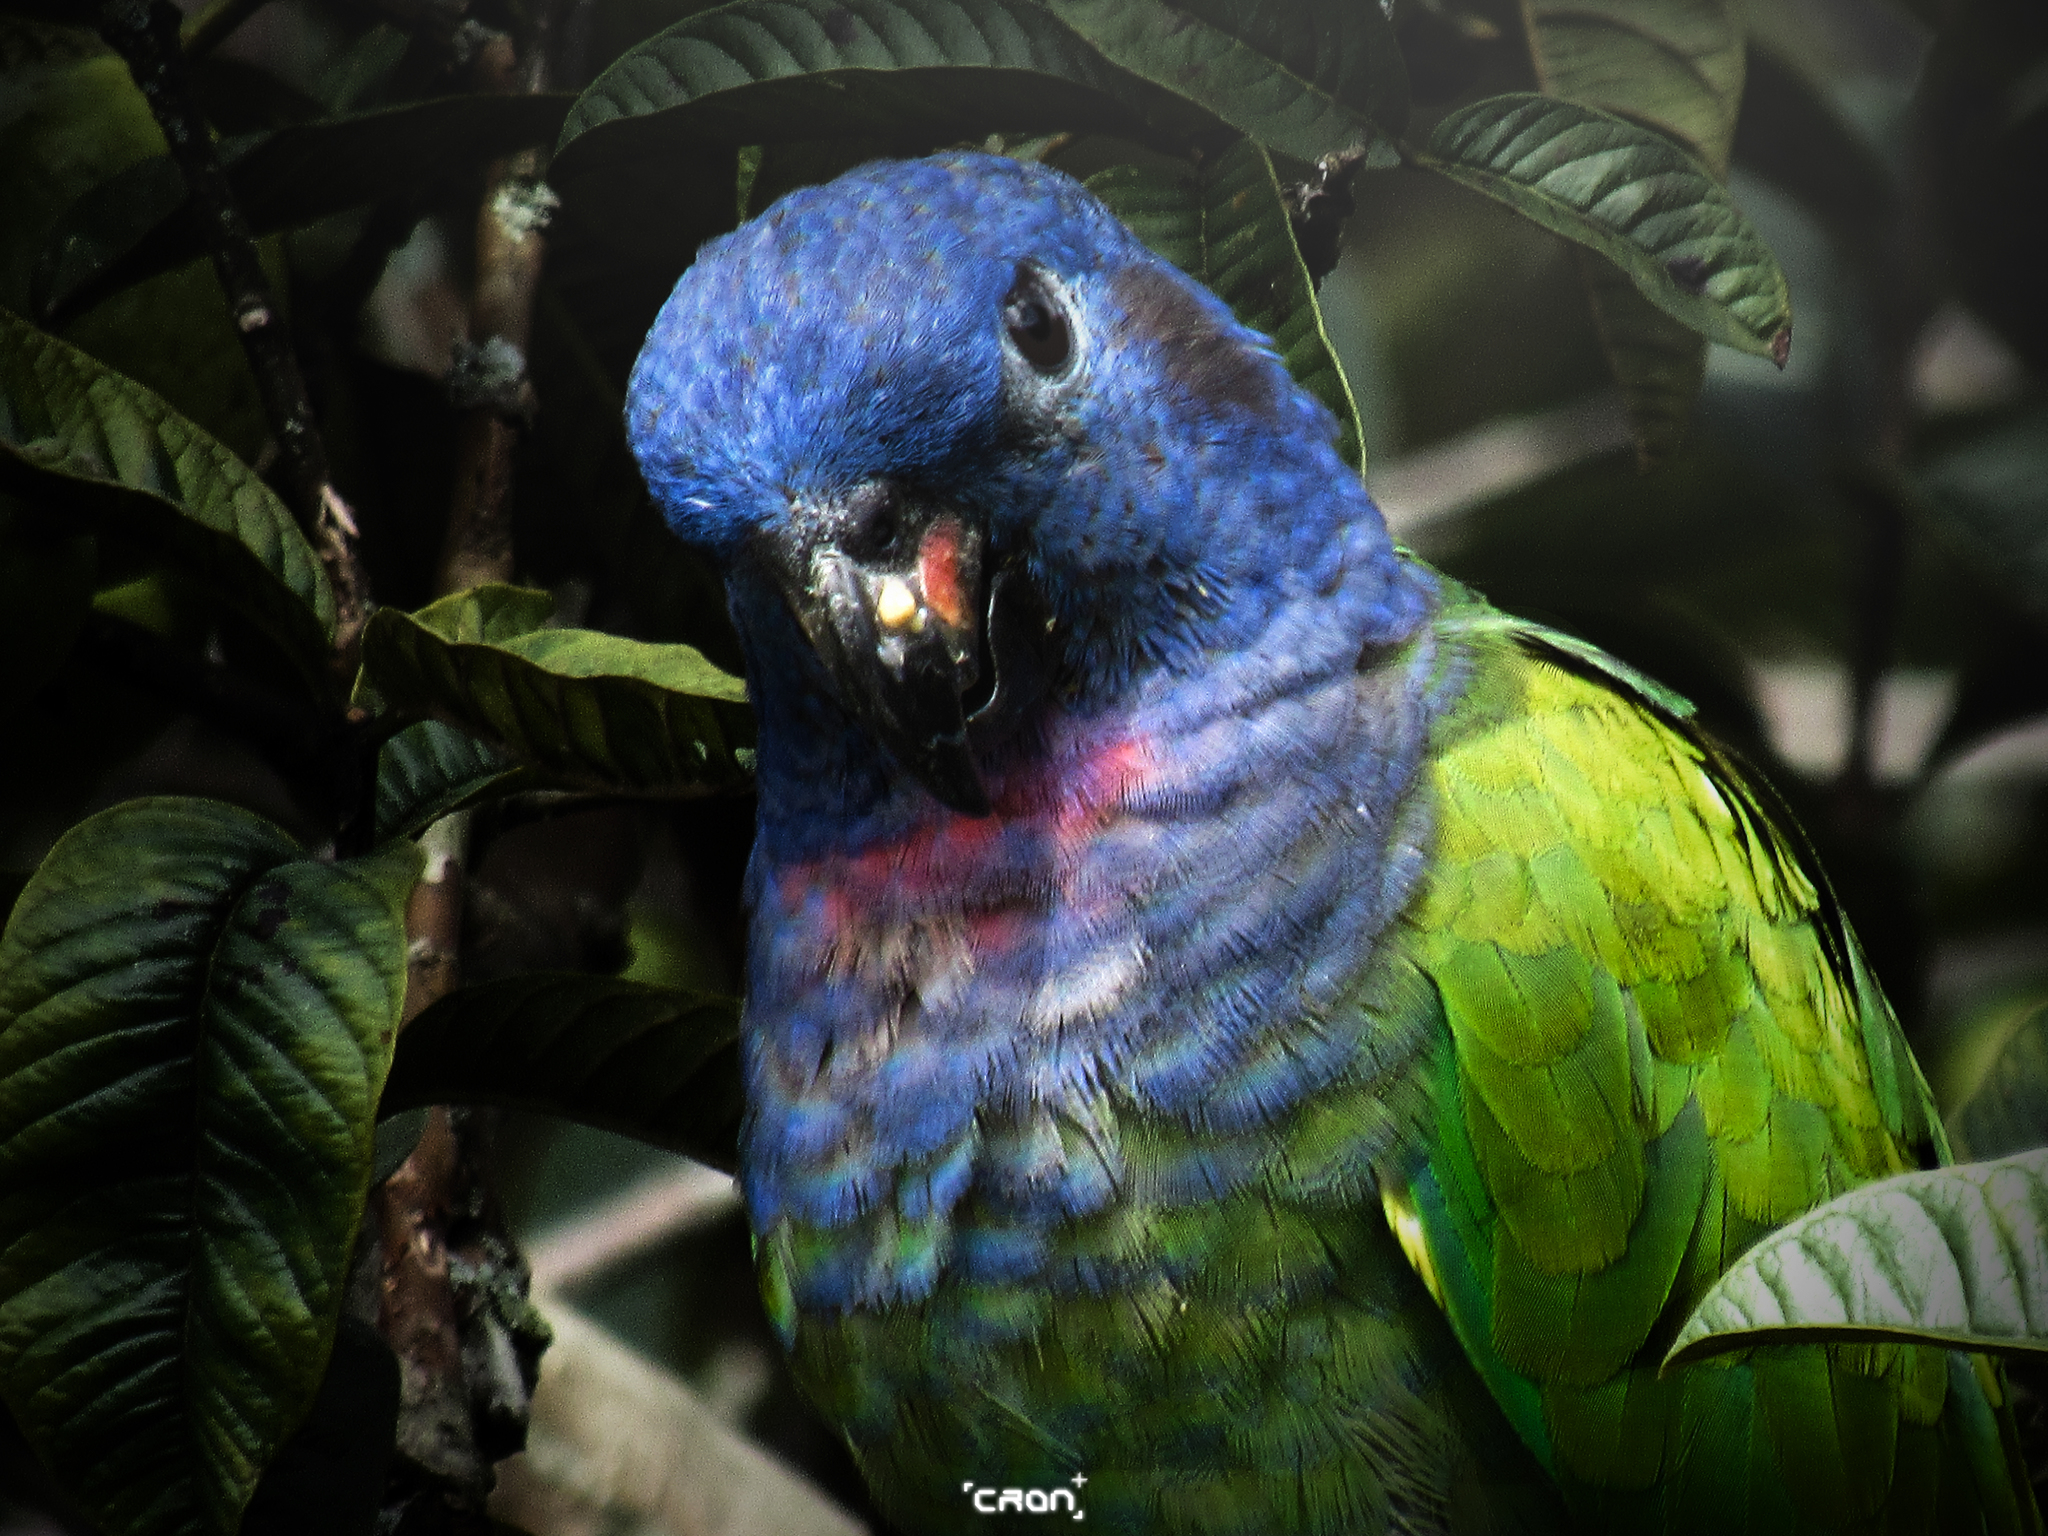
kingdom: Animalia
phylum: Chordata
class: Aves
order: Psittaciformes
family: Psittacidae
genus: Pionus
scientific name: Pionus menstruus
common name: Blue-headed parrot
